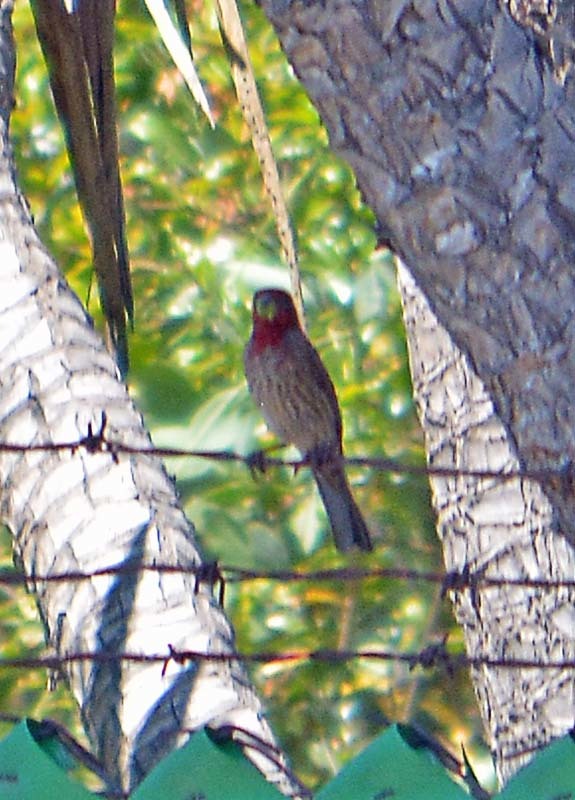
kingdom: Animalia
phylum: Chordata
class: Aves
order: Passeriformes
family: Fringillidae
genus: Haemorhous
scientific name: Haemorhous mexicanus
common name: House finch
